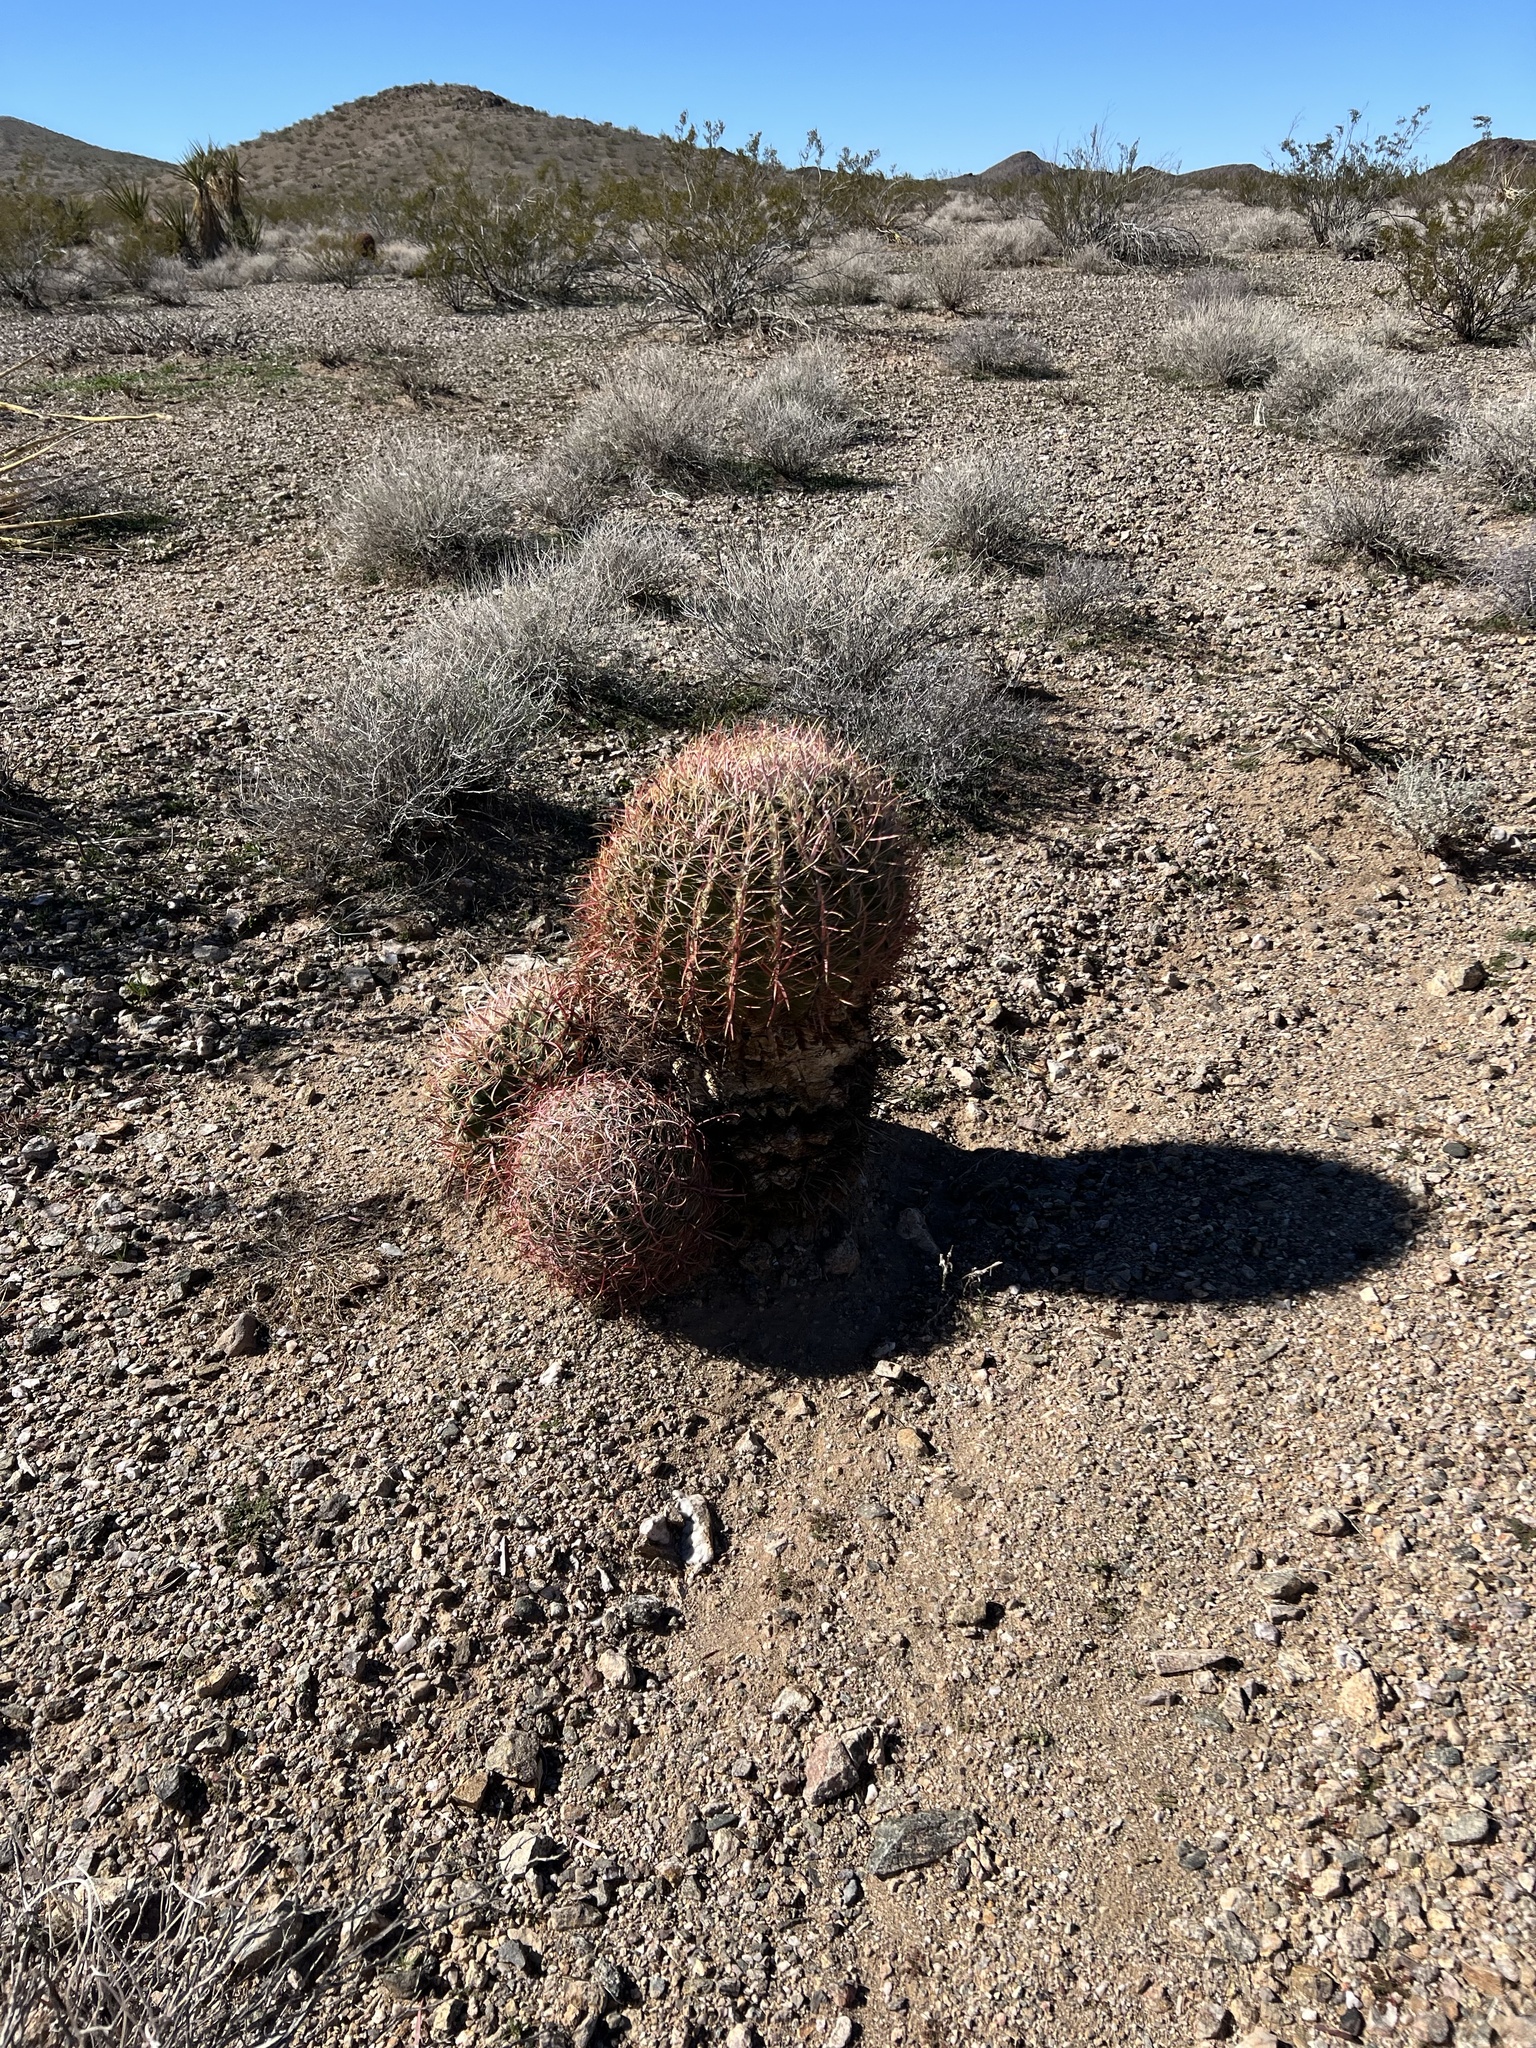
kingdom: Plantae
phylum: Tracheophyta
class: Magnoliopsida
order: Caryophyllales
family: Cactaceae
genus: Ferocactus
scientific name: Ferocactus cylindraceus
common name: California barrel cactus
